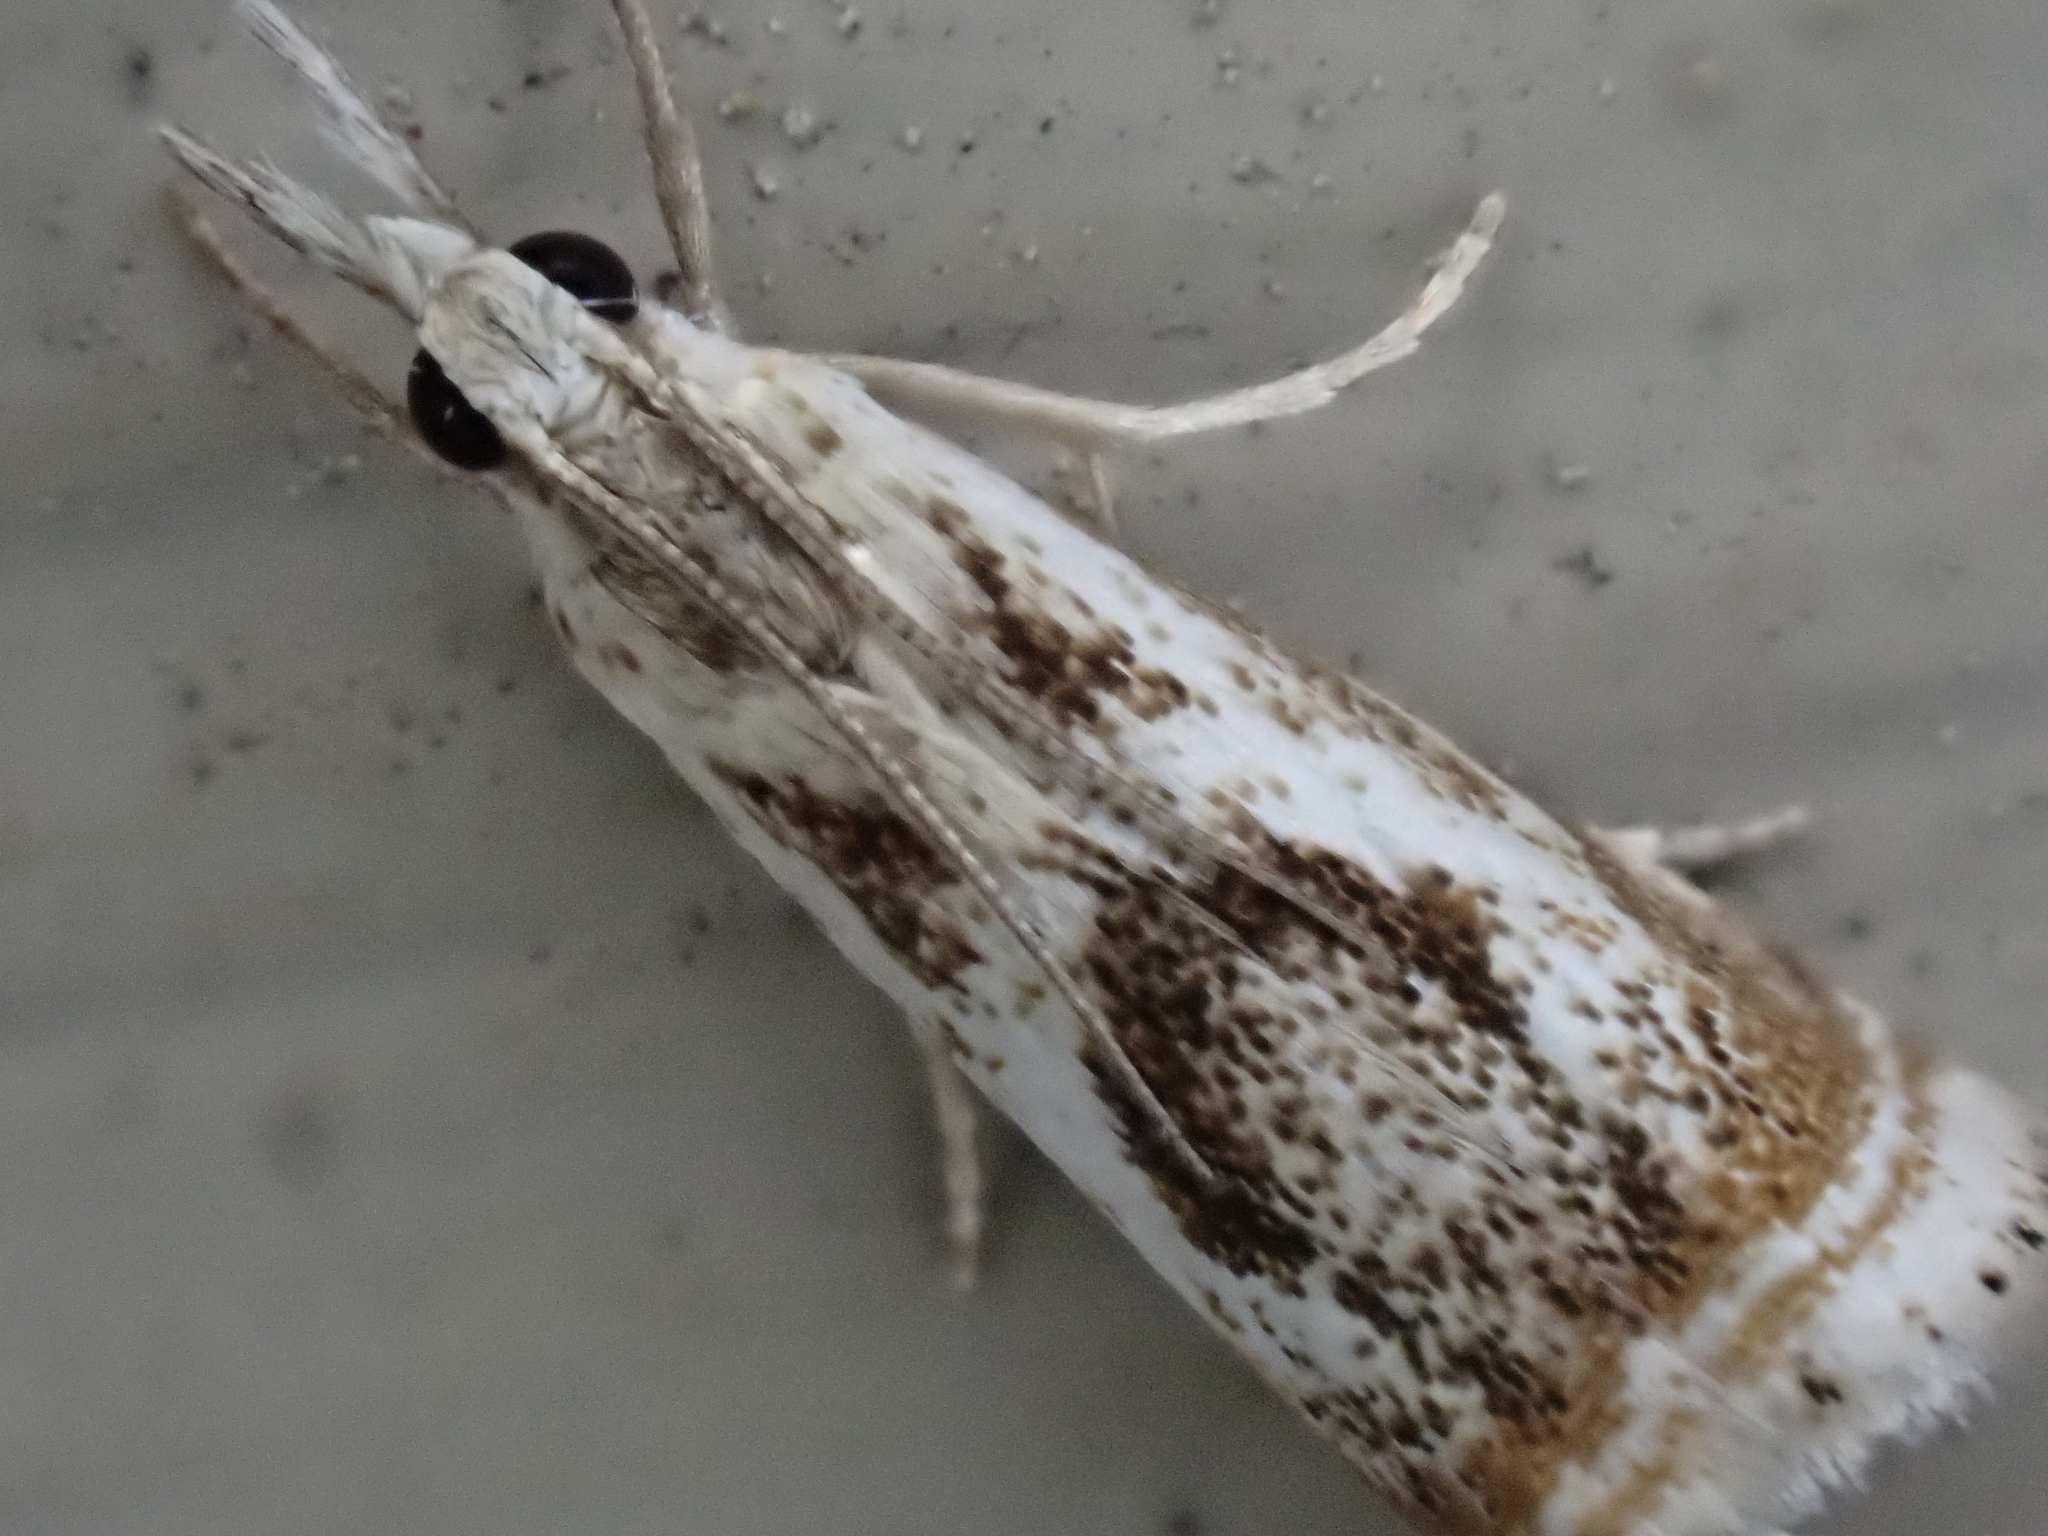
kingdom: Animalia
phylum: Arthropoda
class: Insecta
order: Lepidoptera
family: Crambidae
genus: Microcrambus
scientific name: Microcrambus elegans
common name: Elegant grass-veneer
